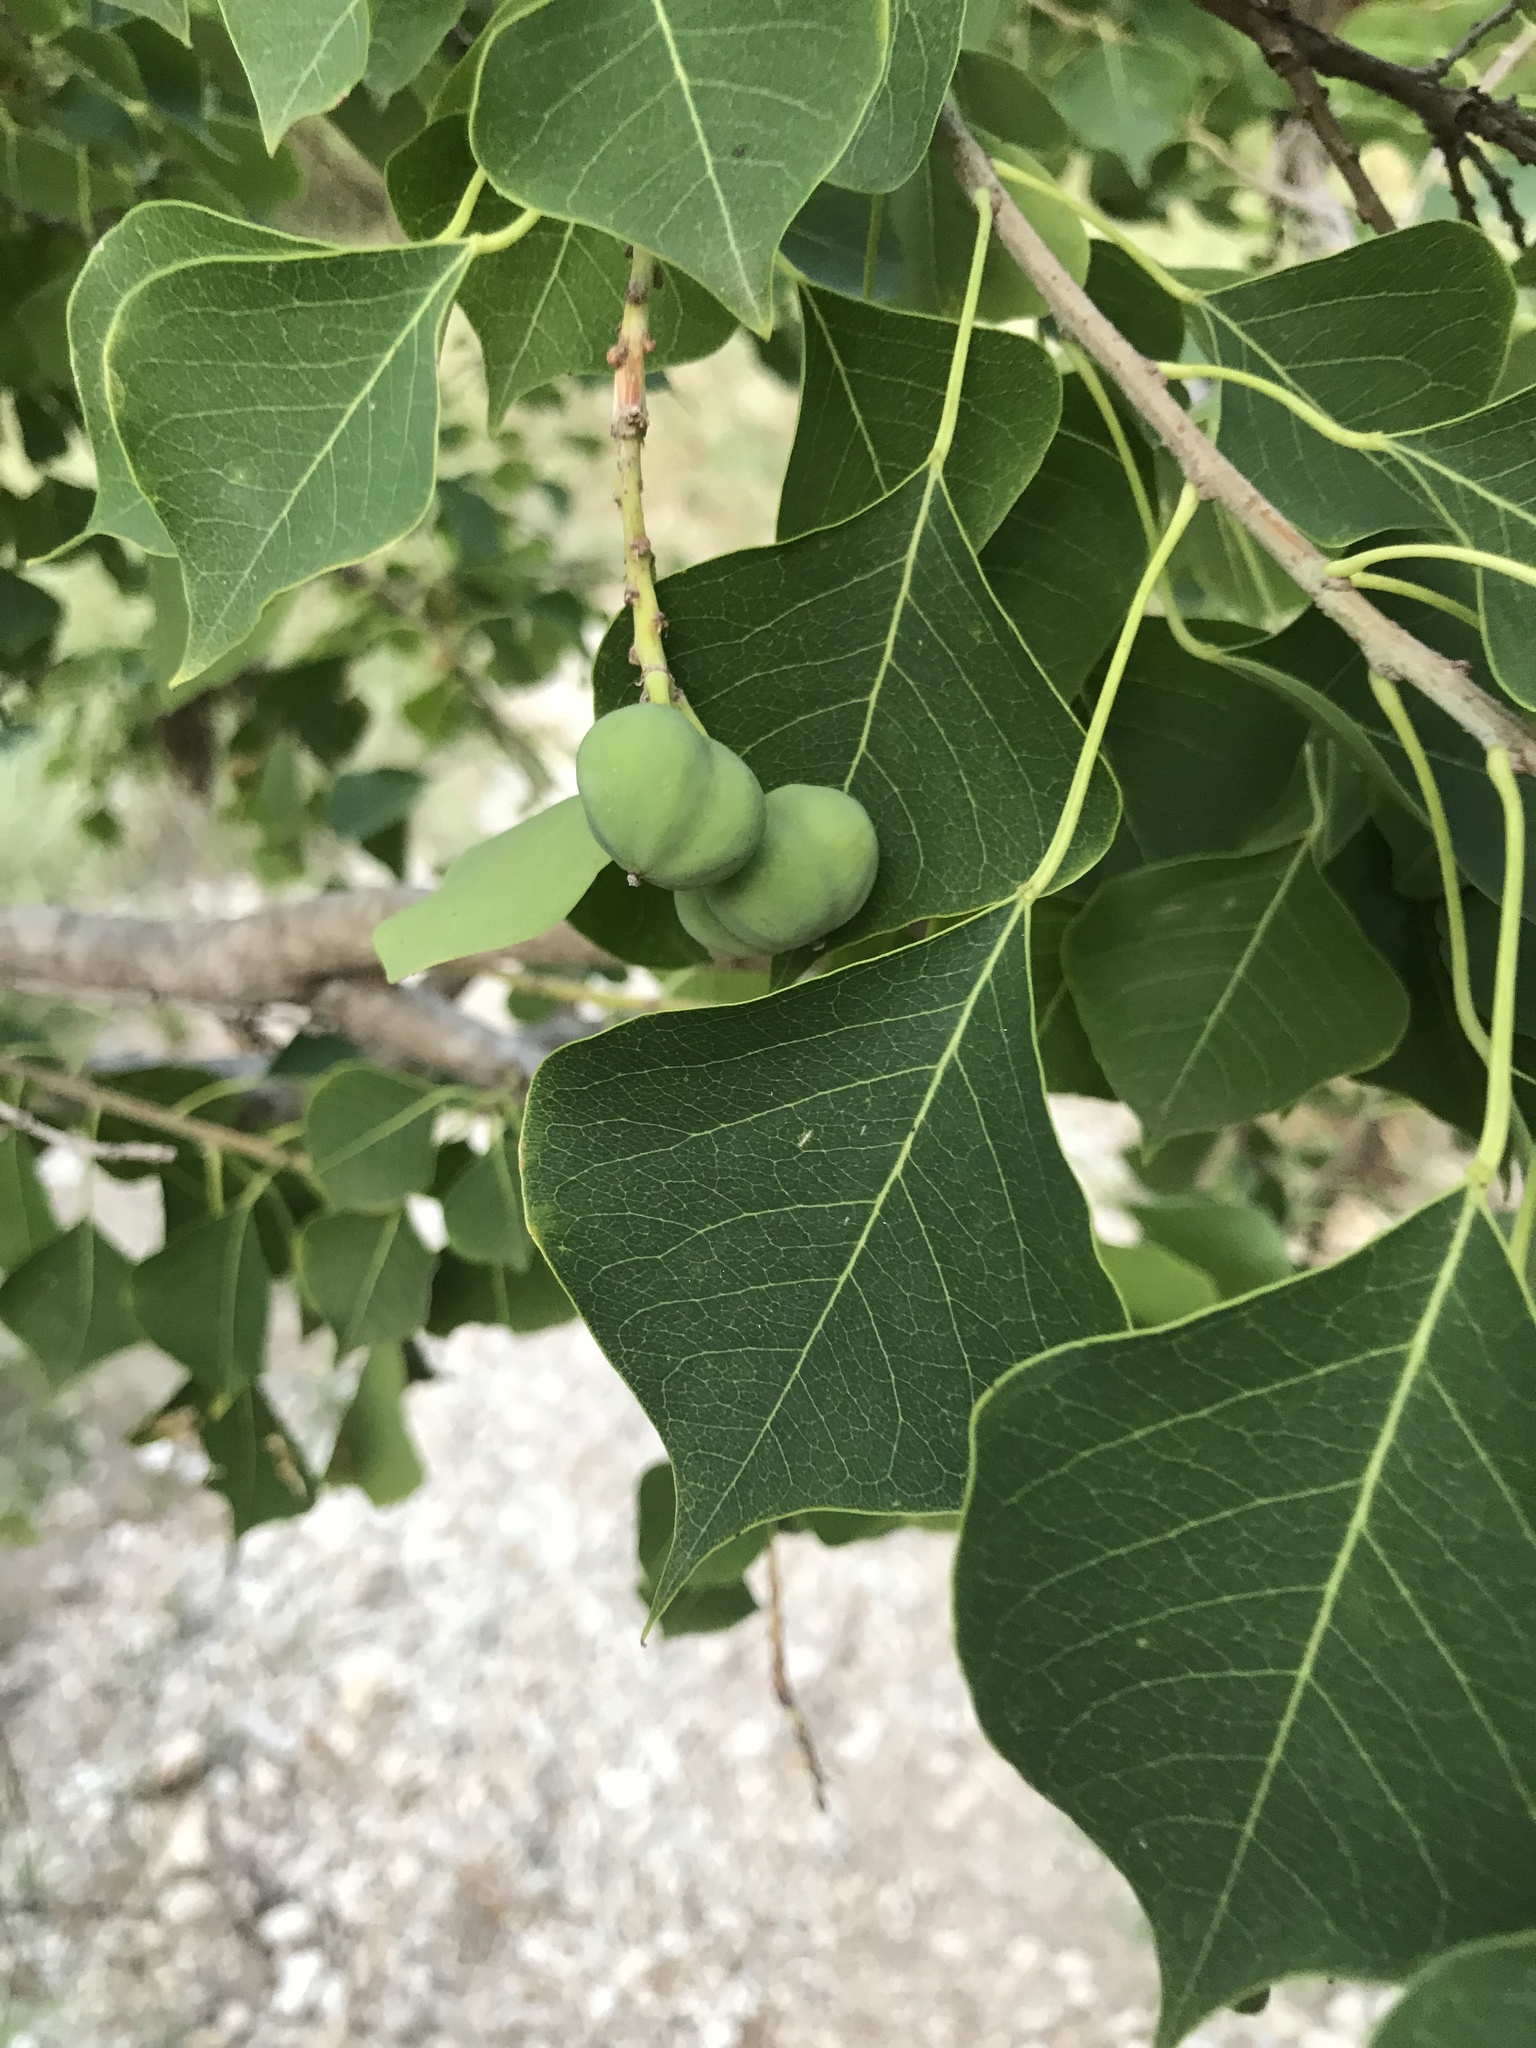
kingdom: Plantae
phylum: Tracheophyta
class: Magnoliopsida
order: Malpighiales
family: Euphorbiaceae
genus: Triadica
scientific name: Triadica sebifera
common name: Chinese tallow
